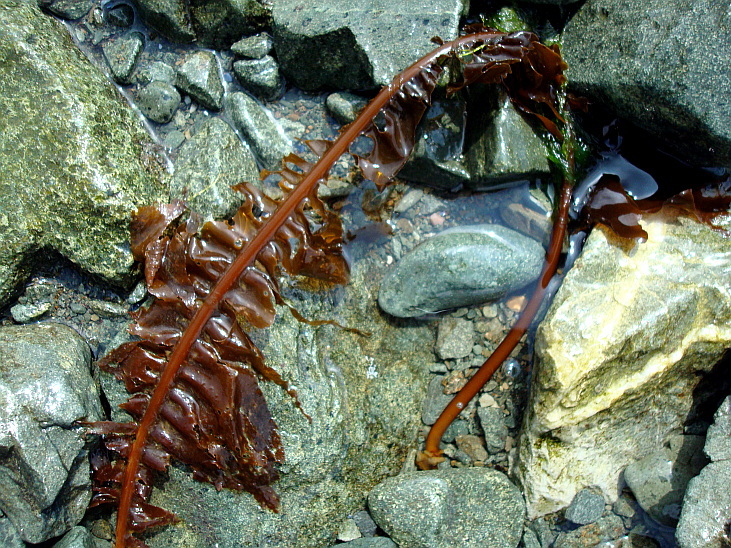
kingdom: Chromista
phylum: Ochrophyta
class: Phaeophyceae
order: Laminariales
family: Alariaceae
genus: Alaria
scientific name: Alaria esculenta
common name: Dabberlocks
